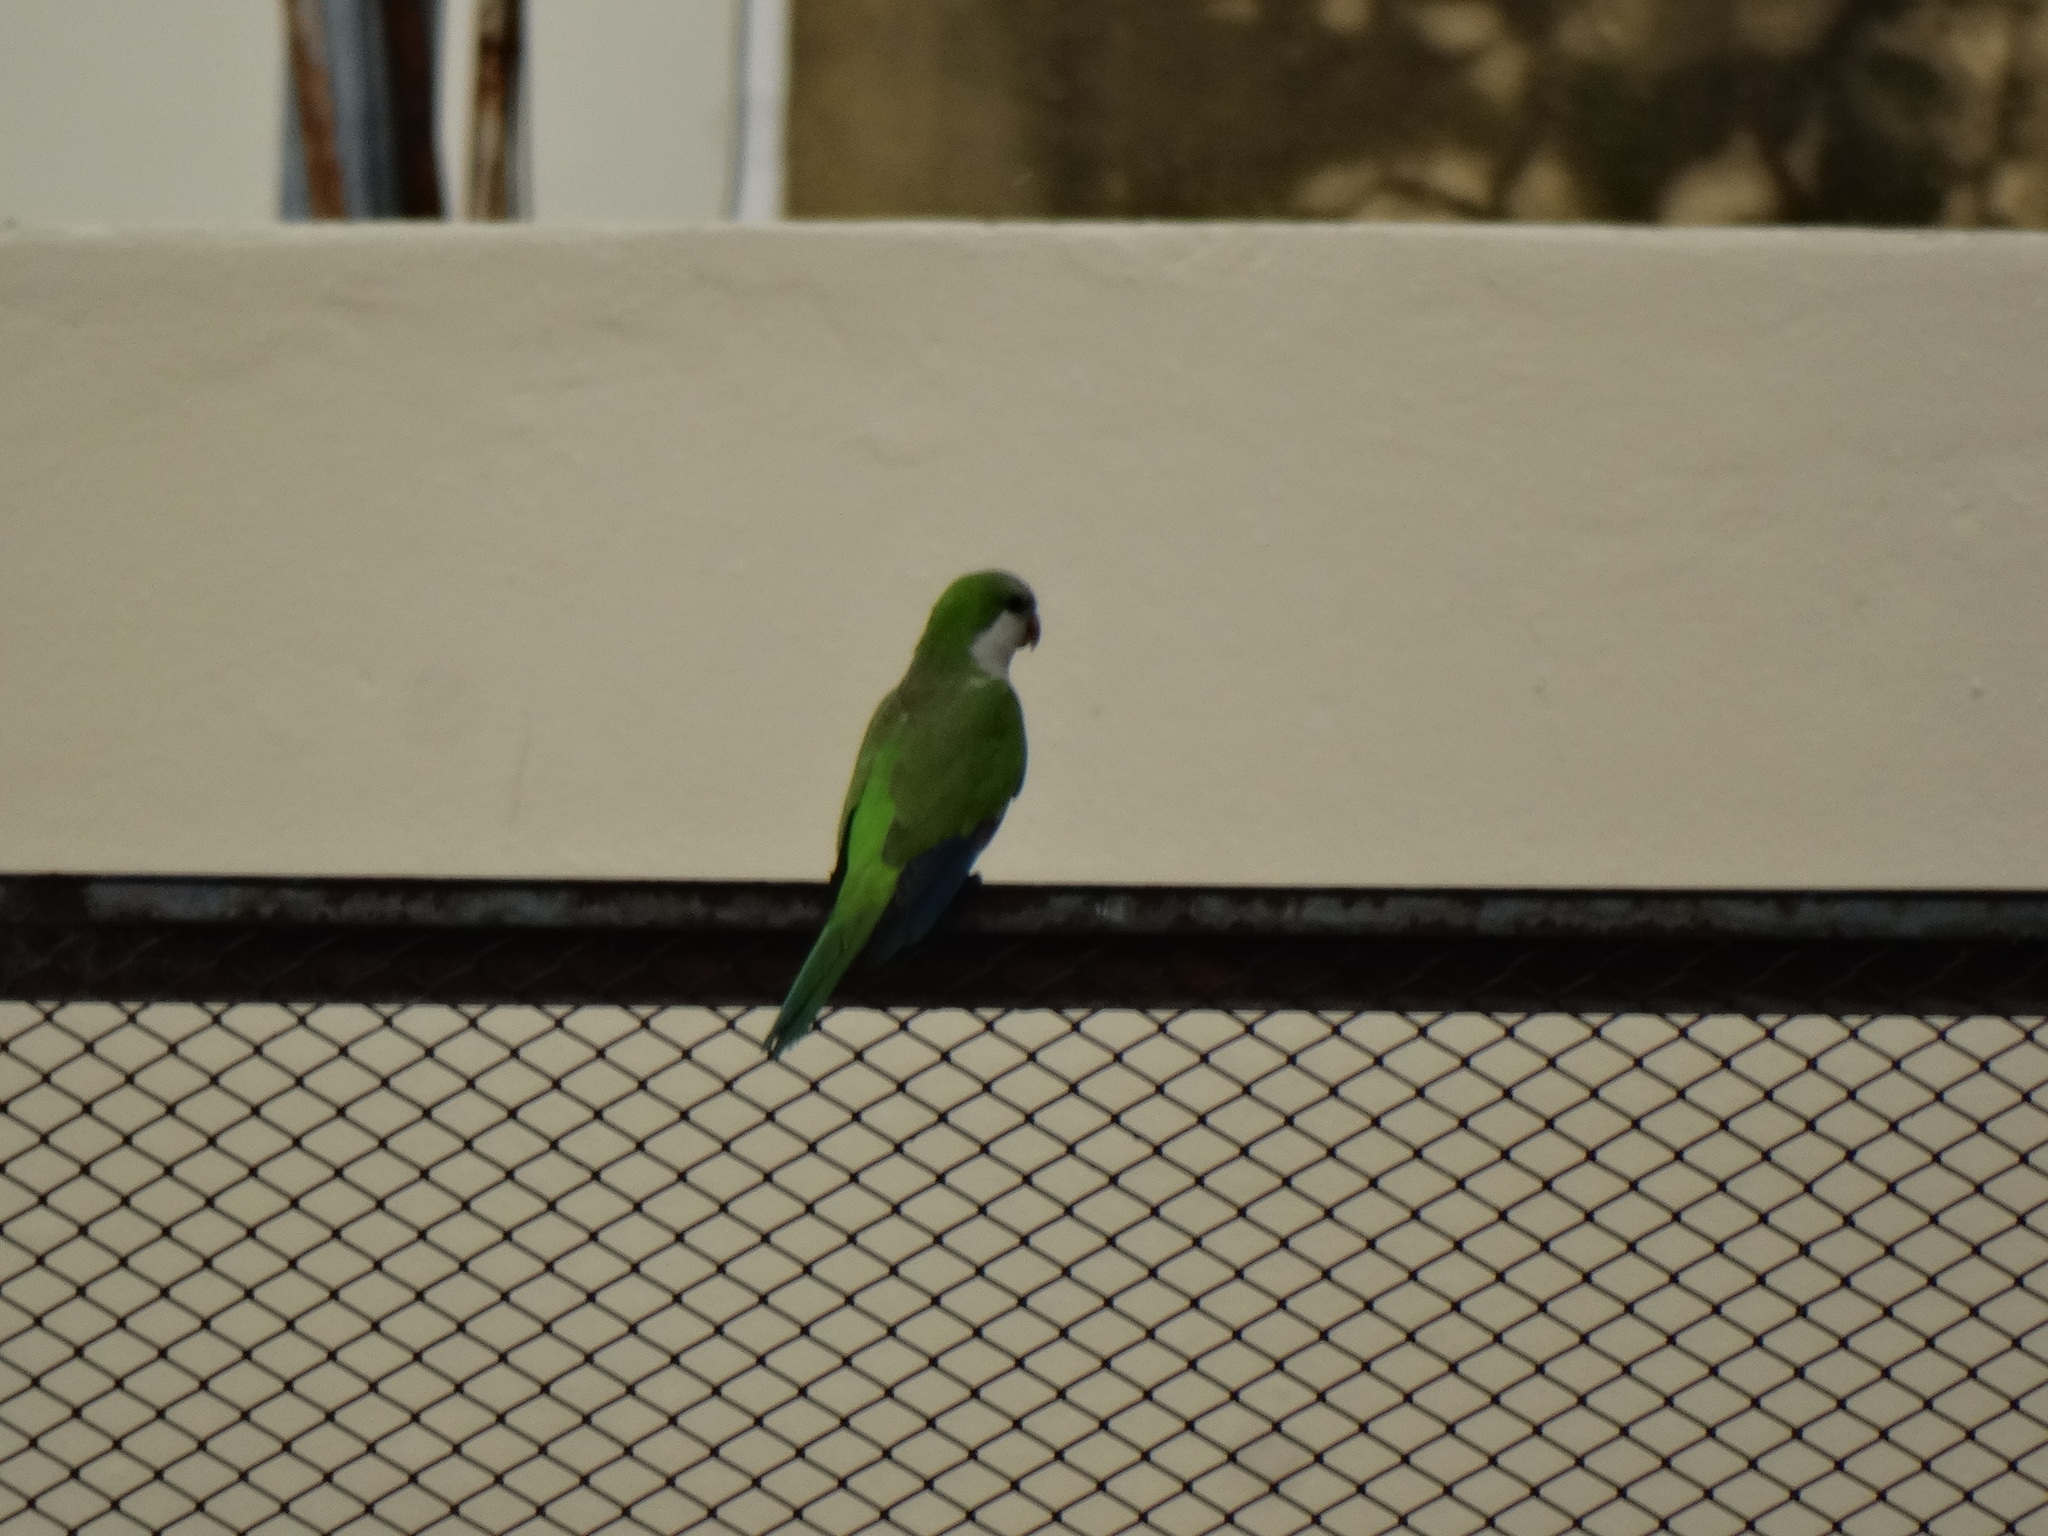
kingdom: Animalia
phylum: Chordata
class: Aves
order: Psittaciformes
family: Psittacidae
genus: Myiopsitta
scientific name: Myiopsitta monachus
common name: Monk parakeet
